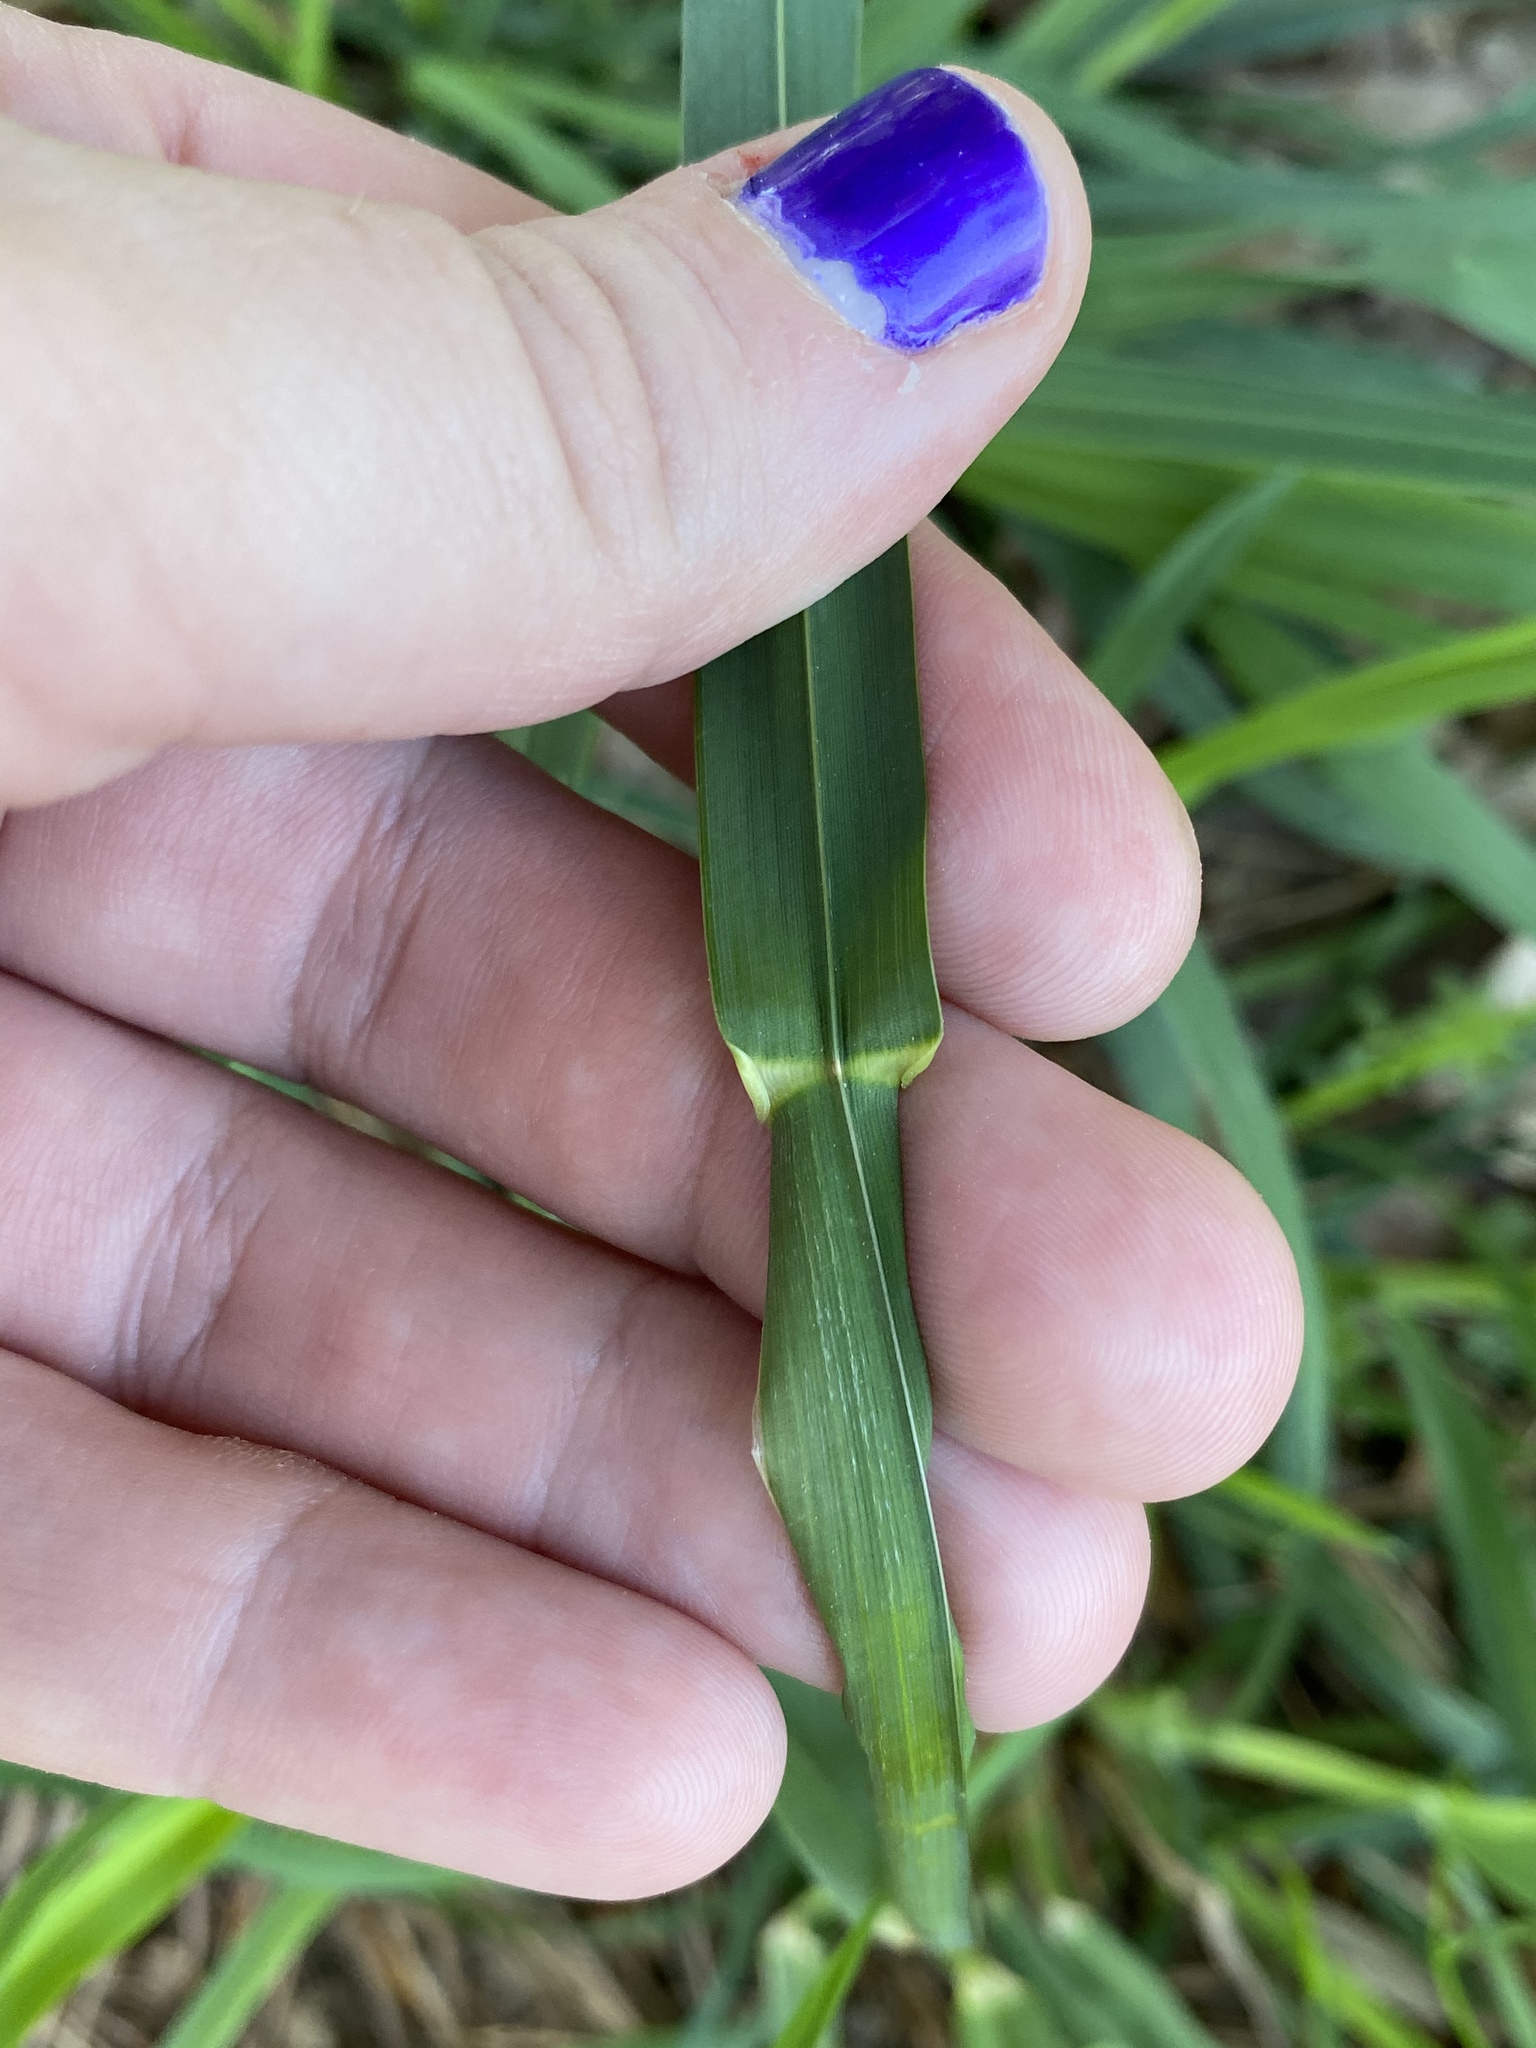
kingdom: Plantae
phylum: Tracheophyta
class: Liliopsida
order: Poales
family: Poaceae
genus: Dactylis
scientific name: Dactylis glomerata
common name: Orchardgrass
